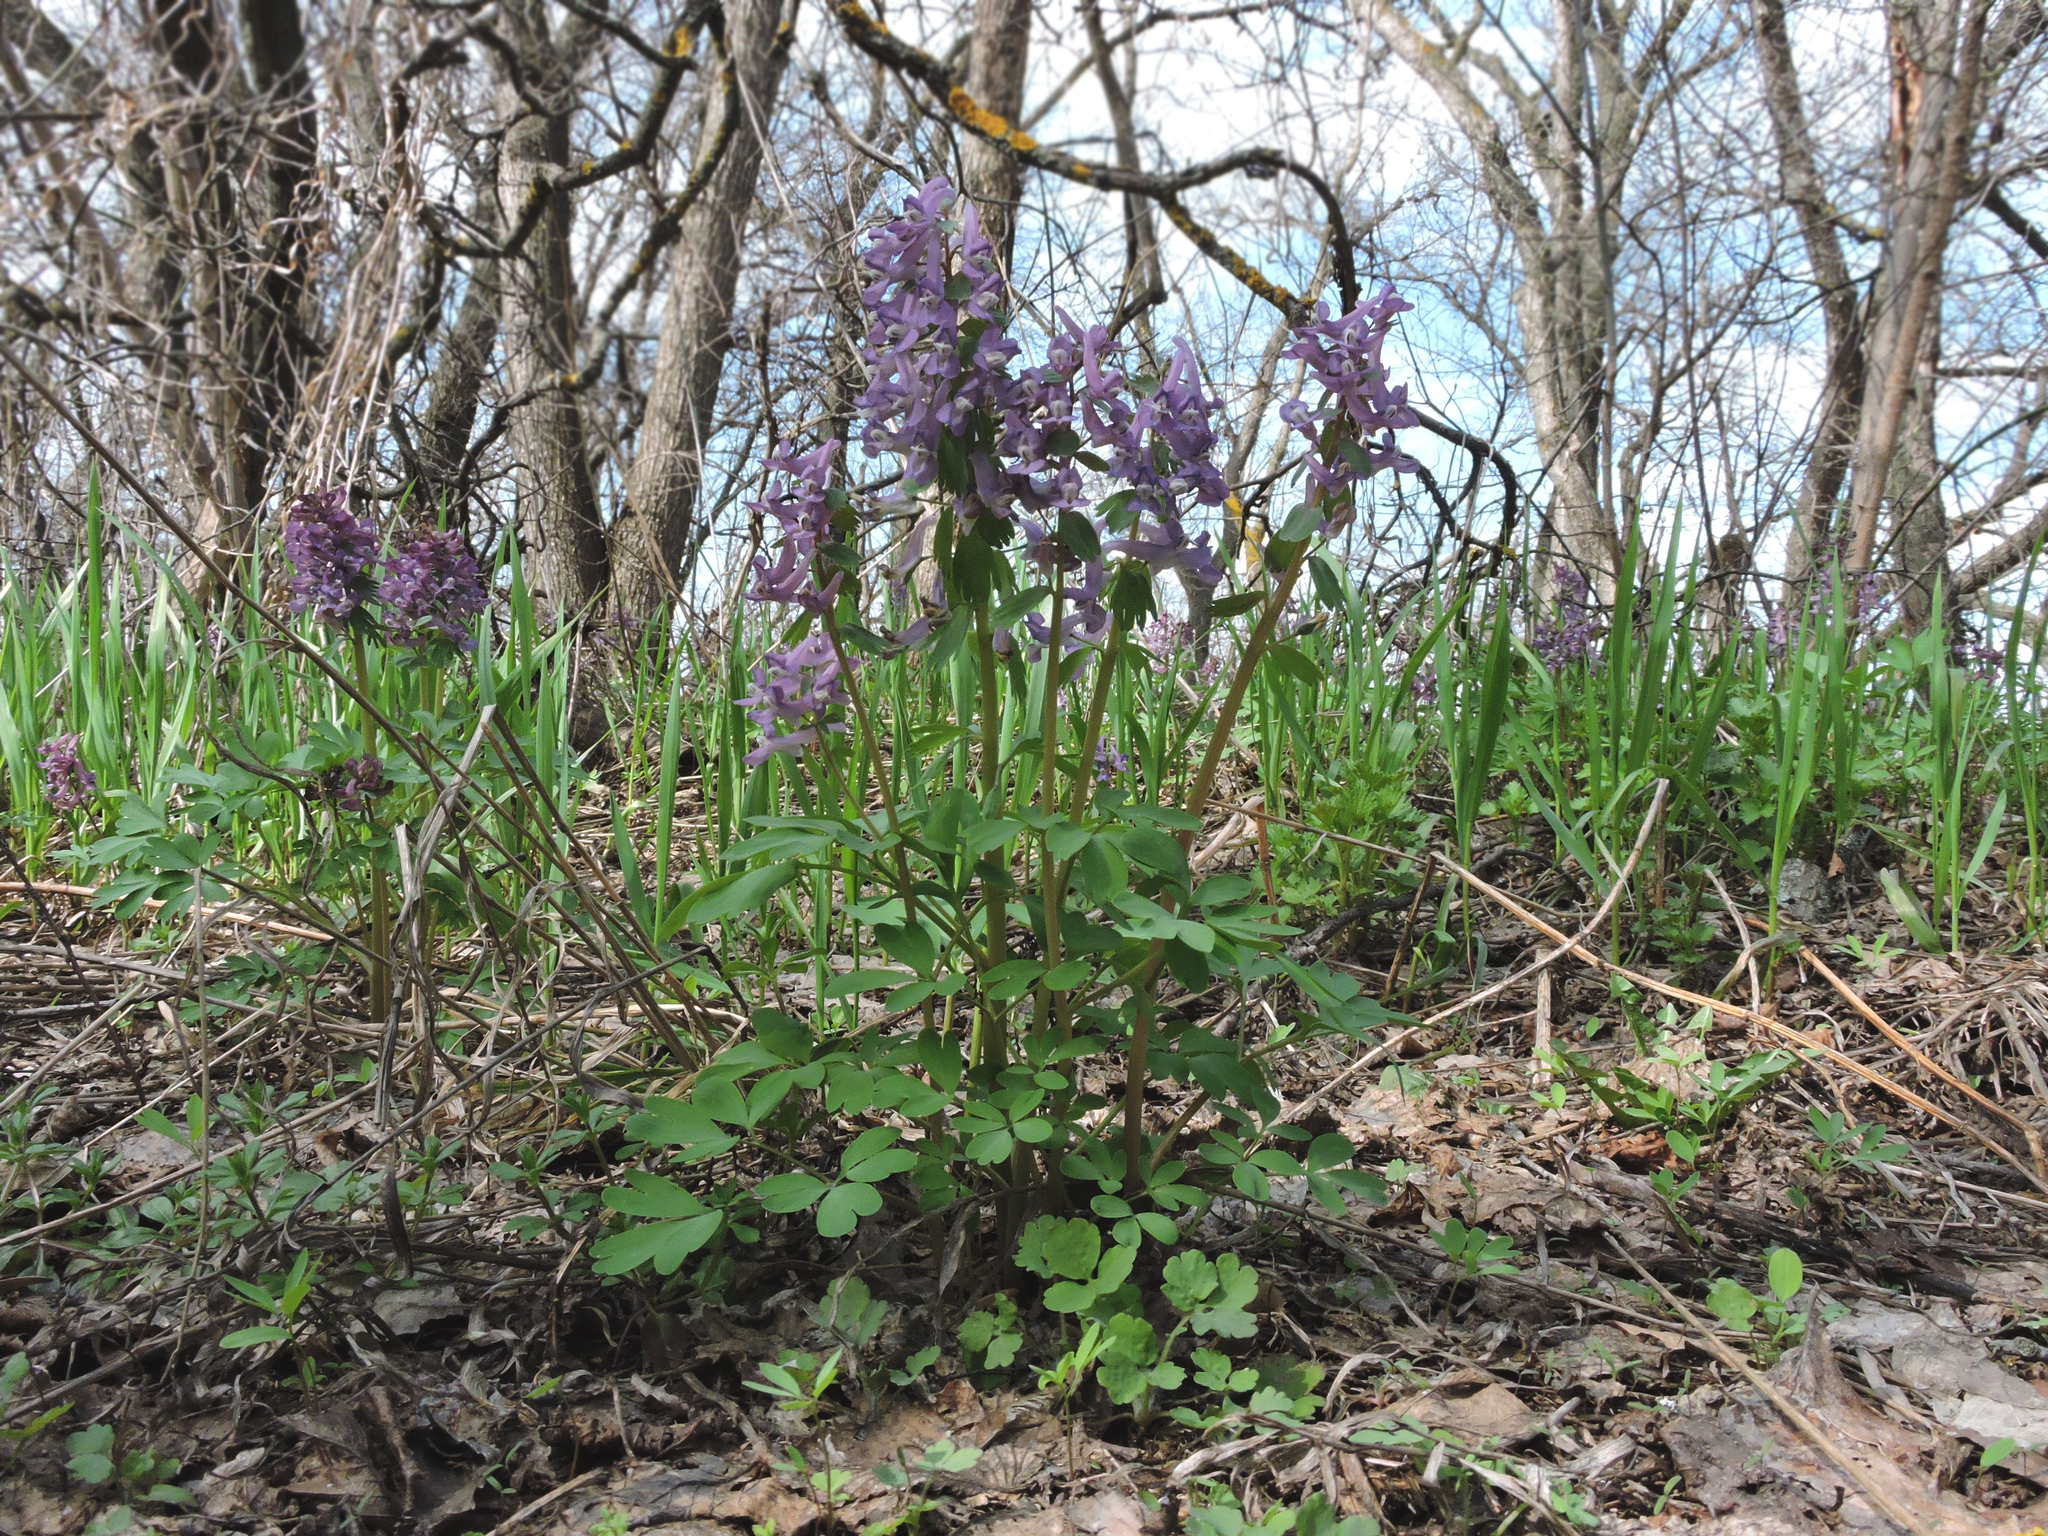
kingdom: Plantae
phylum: Tracheophyta
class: Magnoliopsida
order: Ranunculales
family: Papaveraceae
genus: Corydalis
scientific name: Corydalis solida
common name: Bird-in-a-bush
